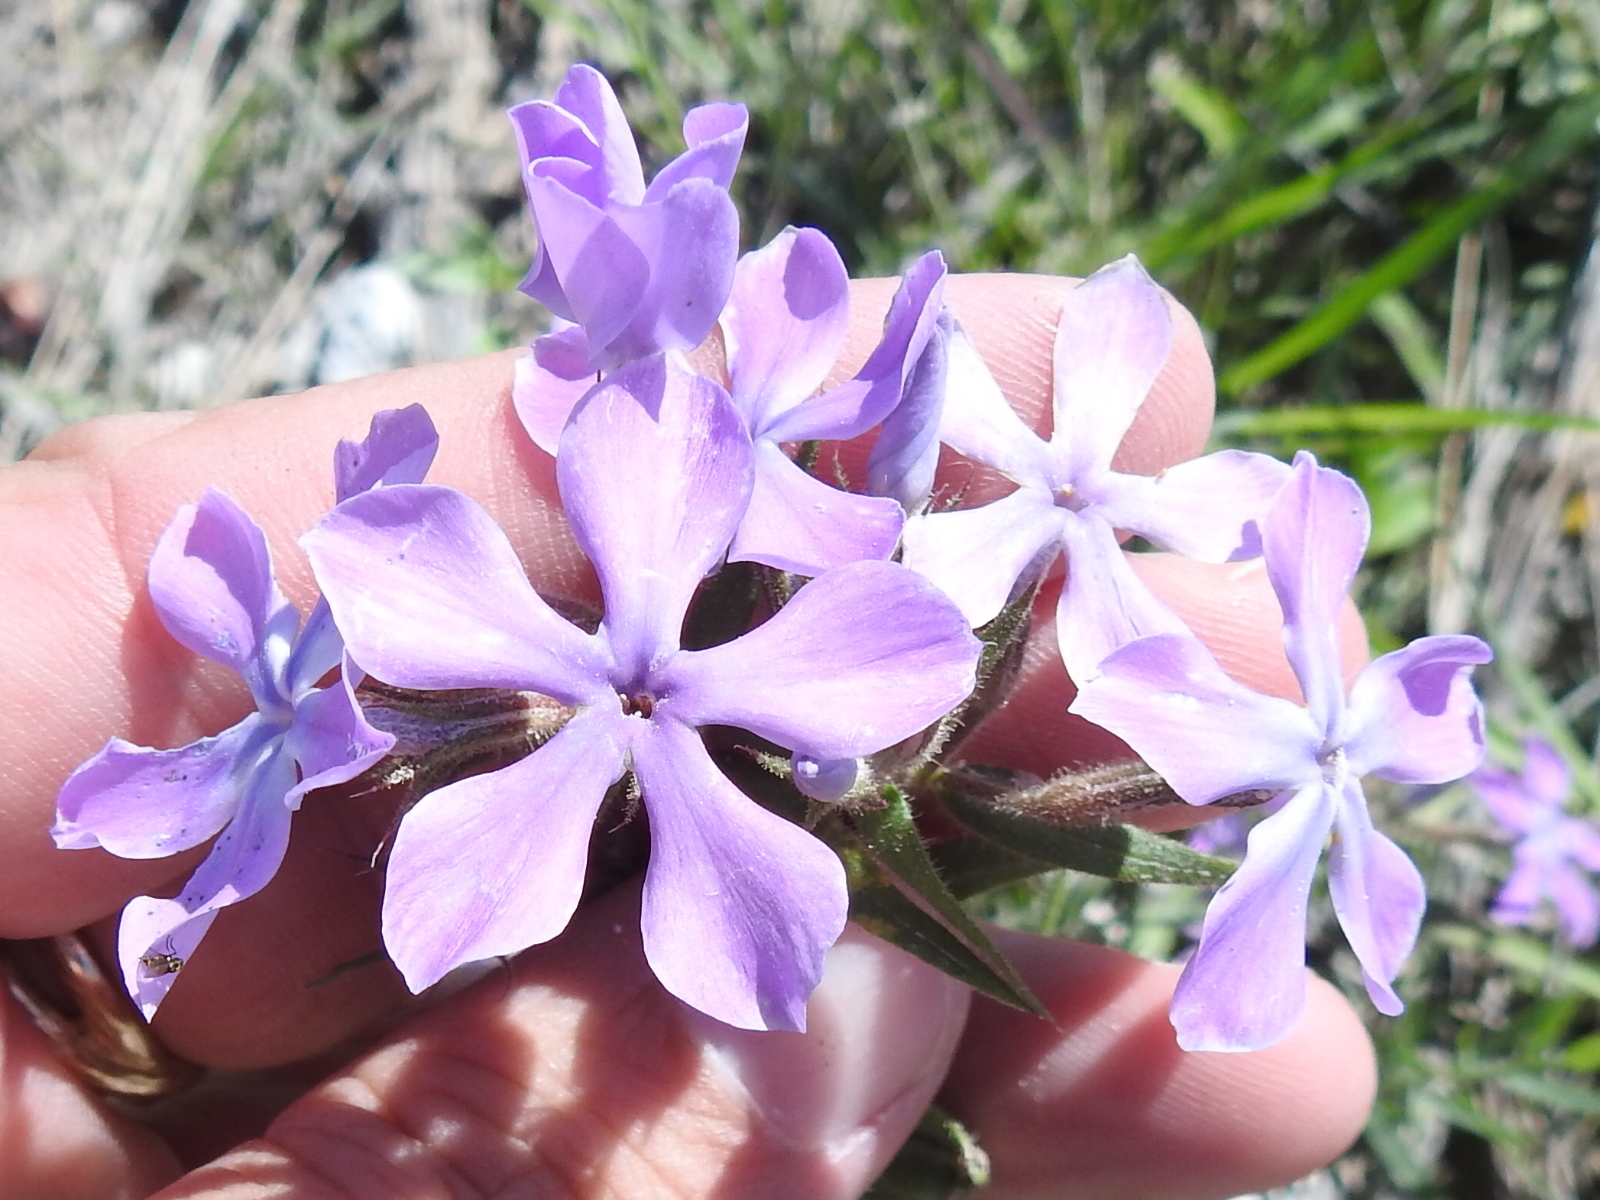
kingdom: Plantae
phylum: Tracheophyta
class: Magnoliopsida
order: Ericales
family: Polemoniaceae
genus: Phlox
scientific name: Phlox pilosa
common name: Prairie phlox
